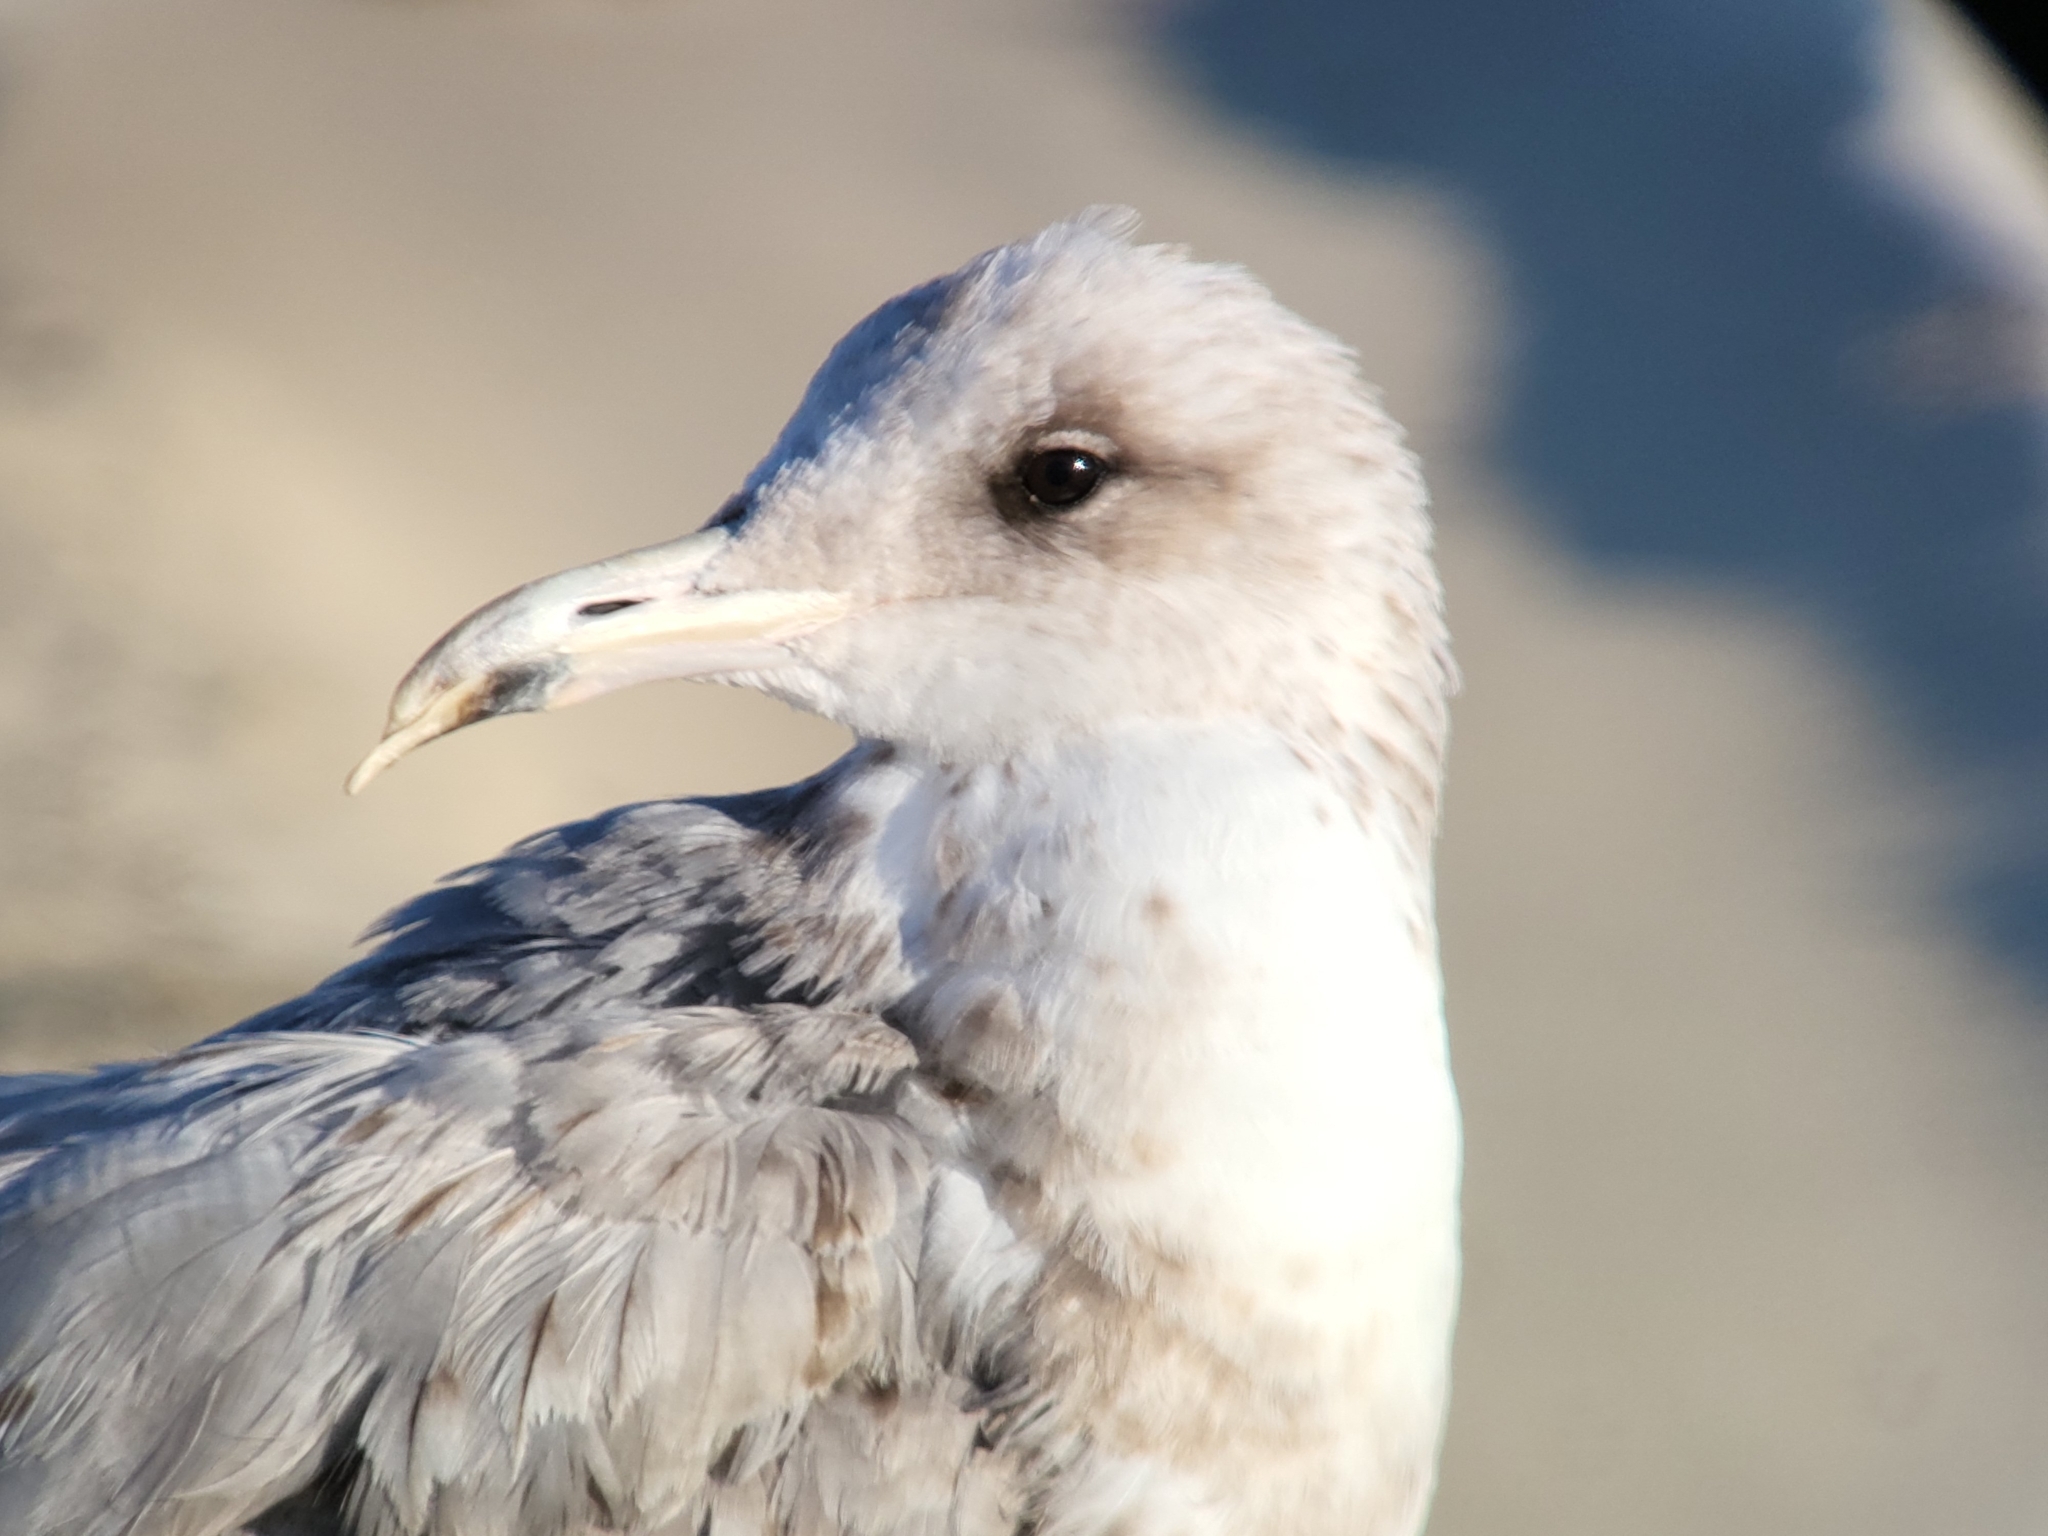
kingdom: Animalia
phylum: Chordata
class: Aves
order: Charadriiformes
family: Laridae
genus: Larus
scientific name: Larus californicus
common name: California gull
